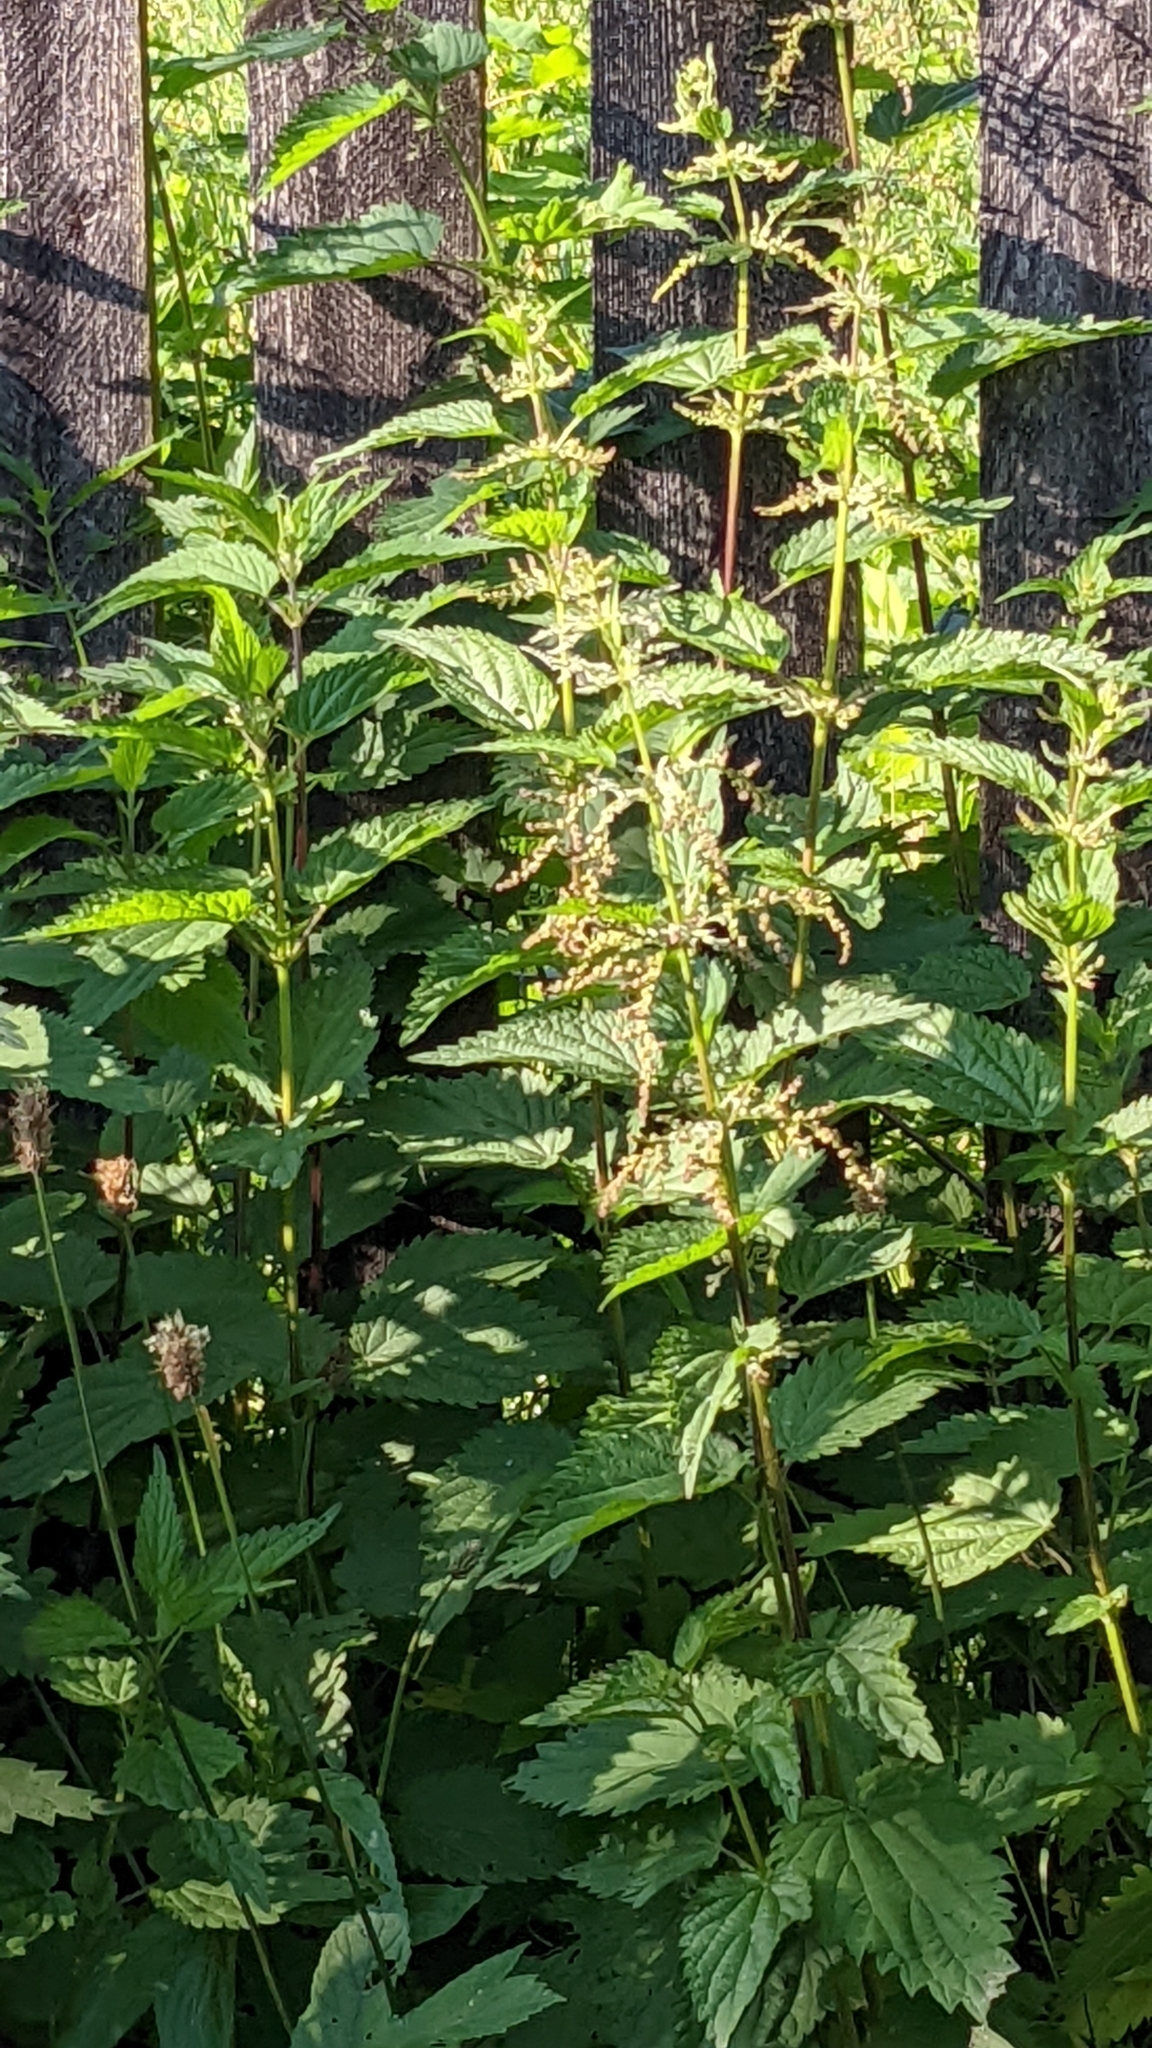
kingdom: Plantae
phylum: Tracheophyta
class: Magnoliopsida
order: Rosales
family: Urticaceae
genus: Urtica
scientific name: Urtica dioica
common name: Common nettle
